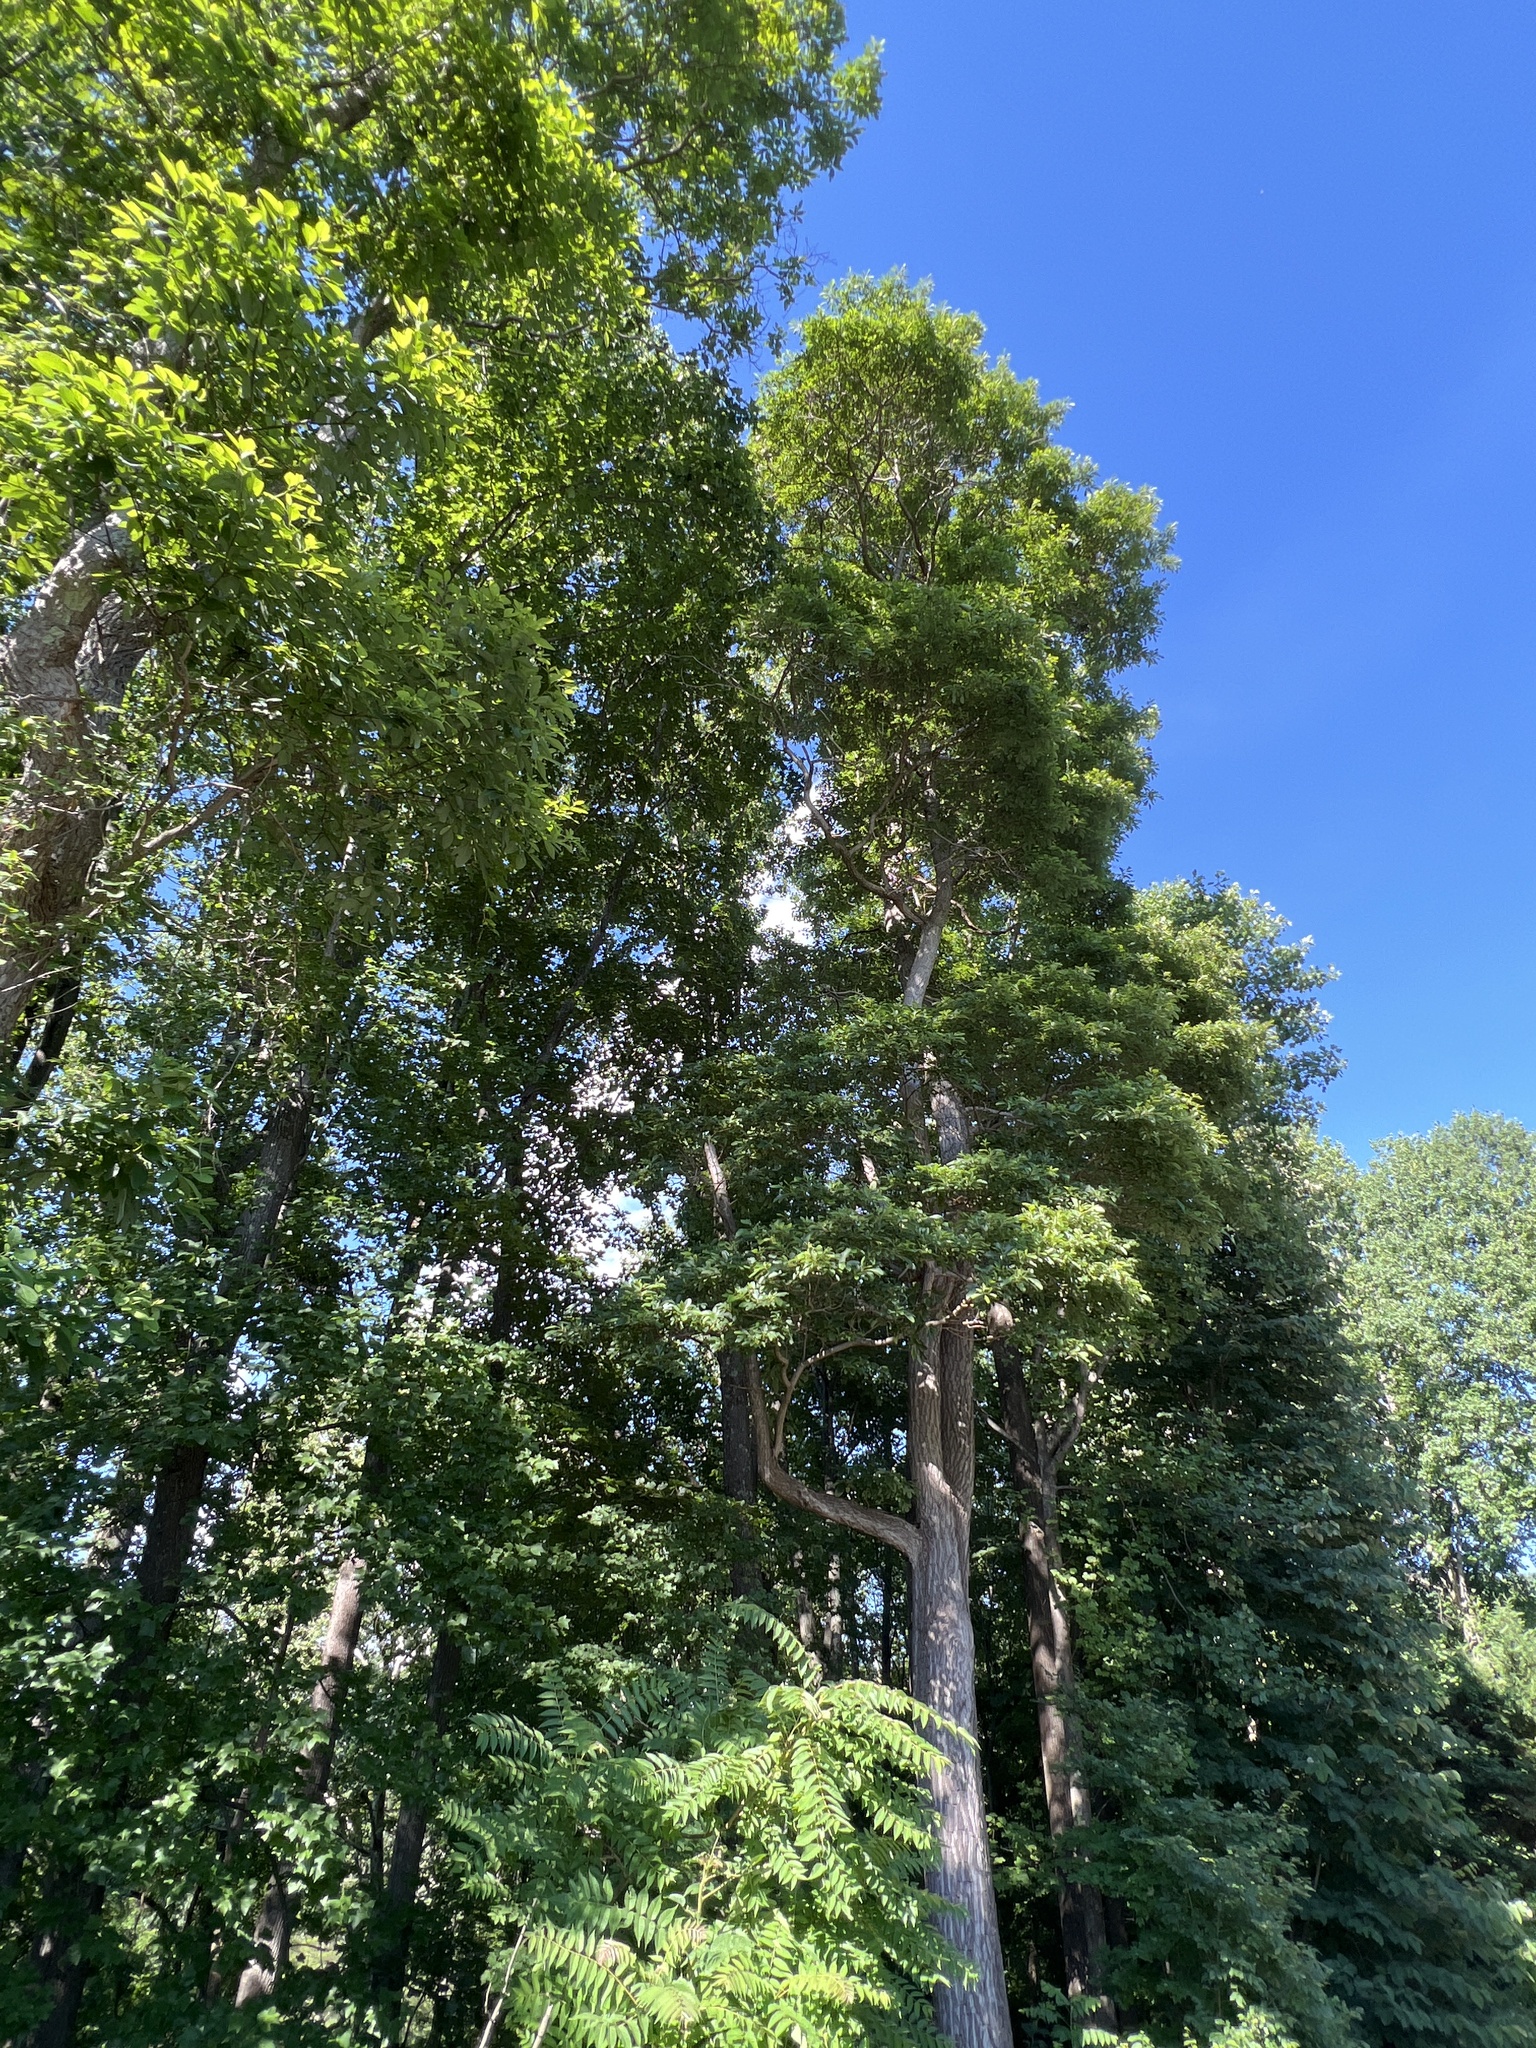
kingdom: Plantae
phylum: Tracheophyta
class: Magnoliopsida
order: Laurales
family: Lauraceae
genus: Sassafras
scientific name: Sassafras albidum
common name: Sassafras
